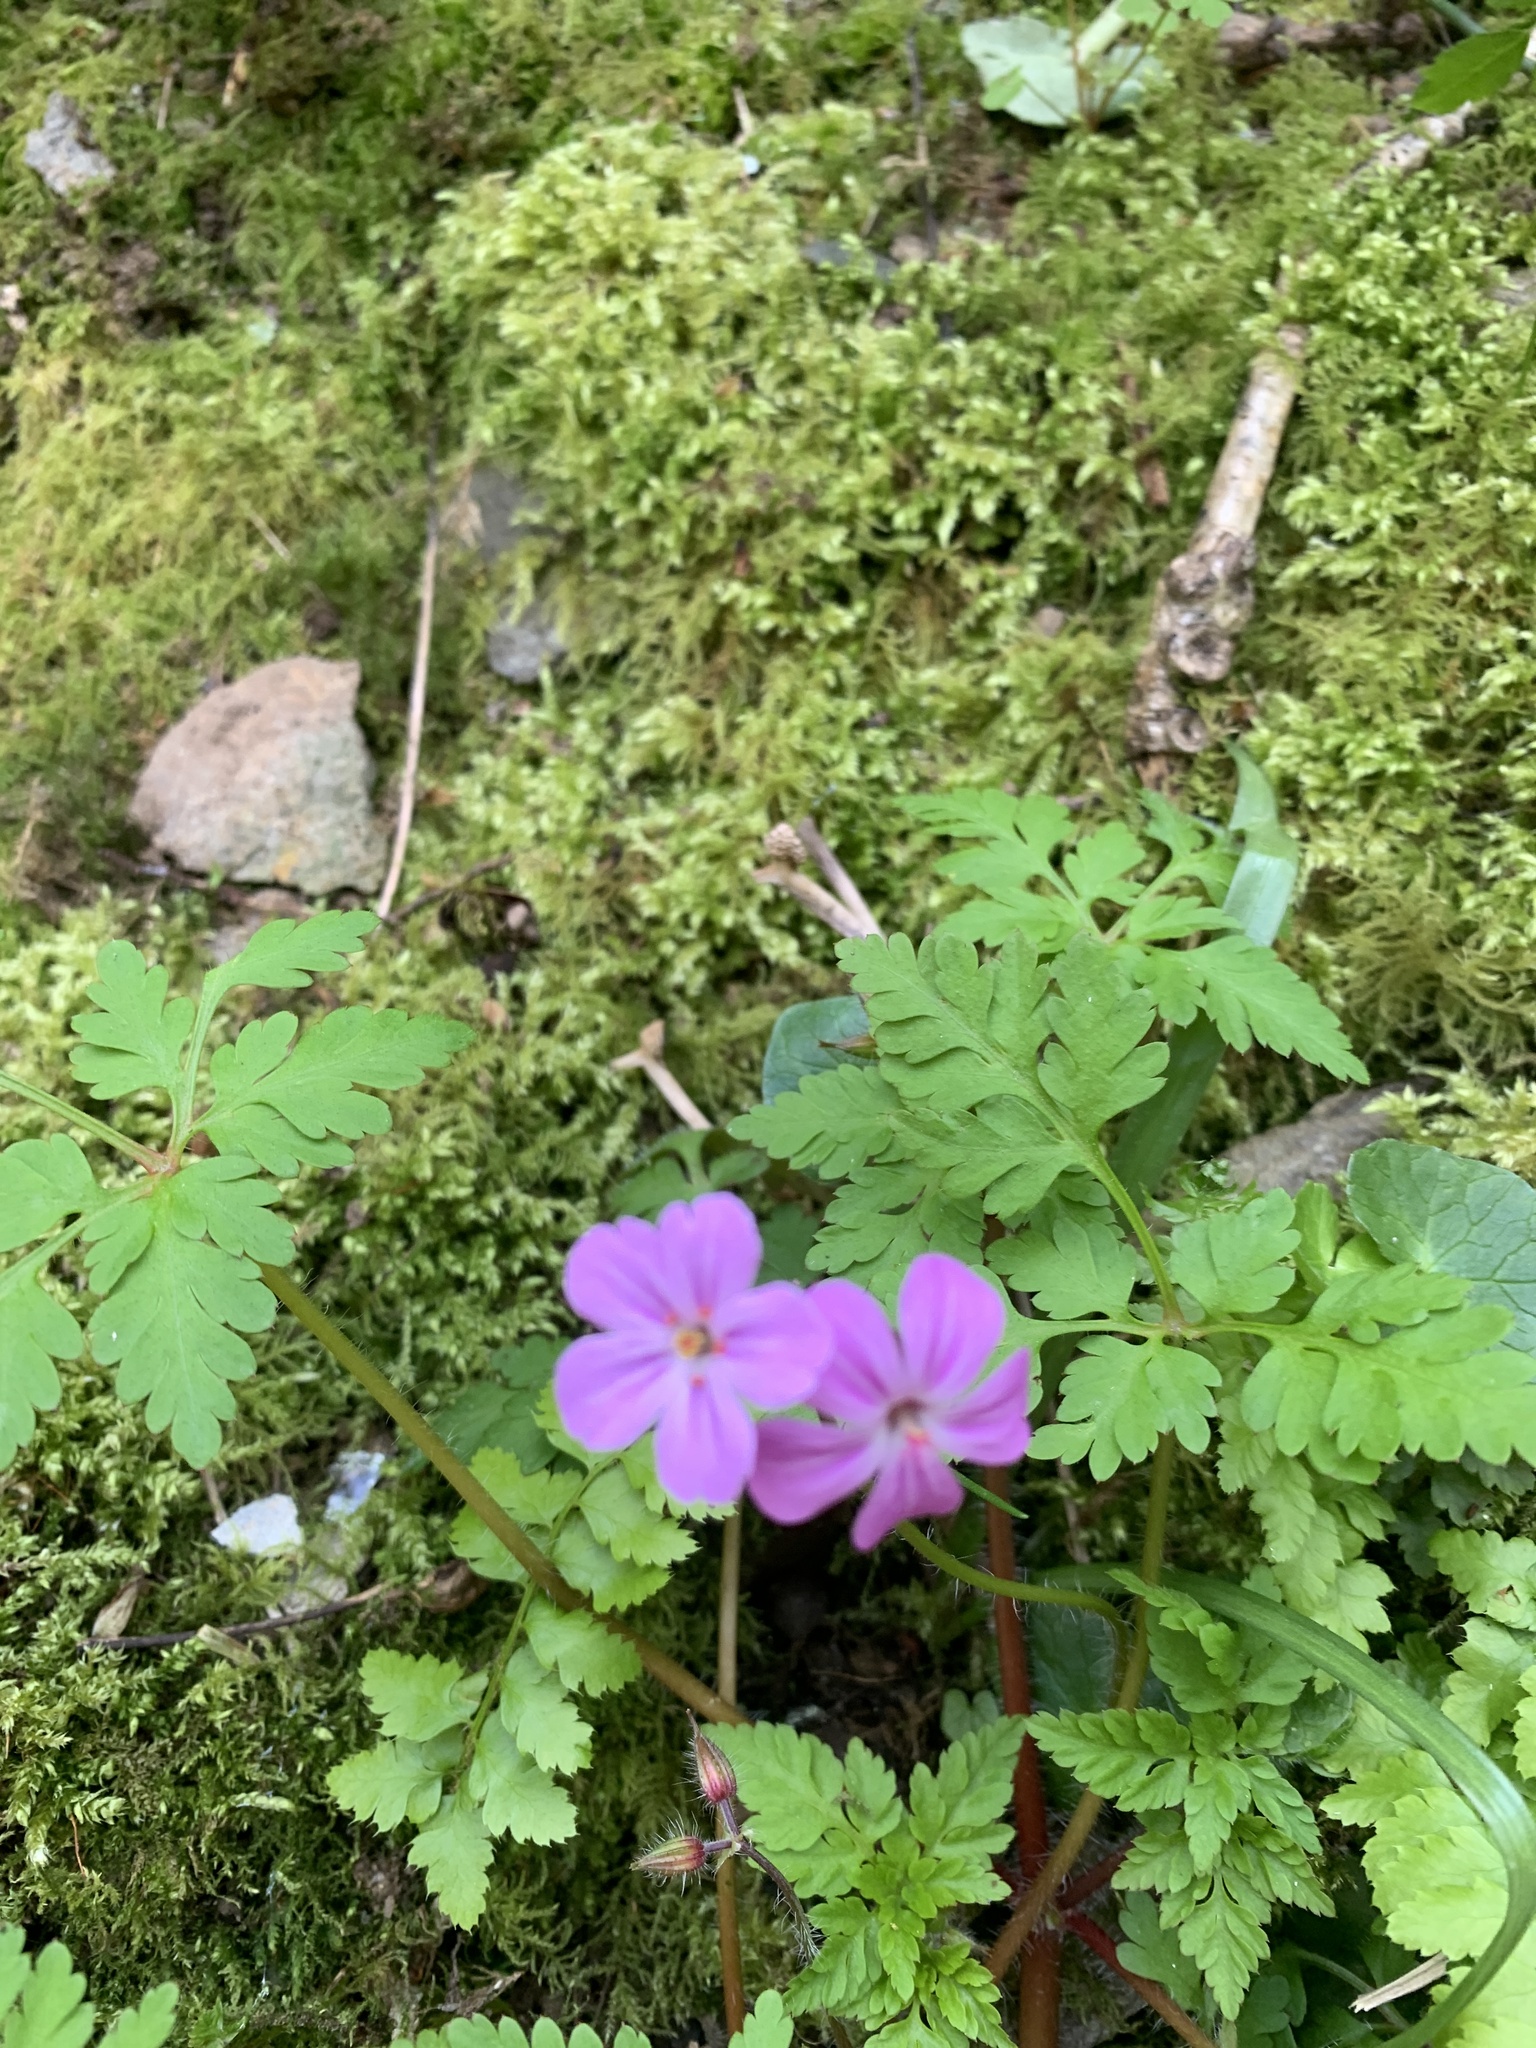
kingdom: Plantae
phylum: Tracheophyta
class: Magnoliopsida
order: Geraniales
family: Geraniaceae
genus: Geranium
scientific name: Geranium robertianum
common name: Herb-robert
